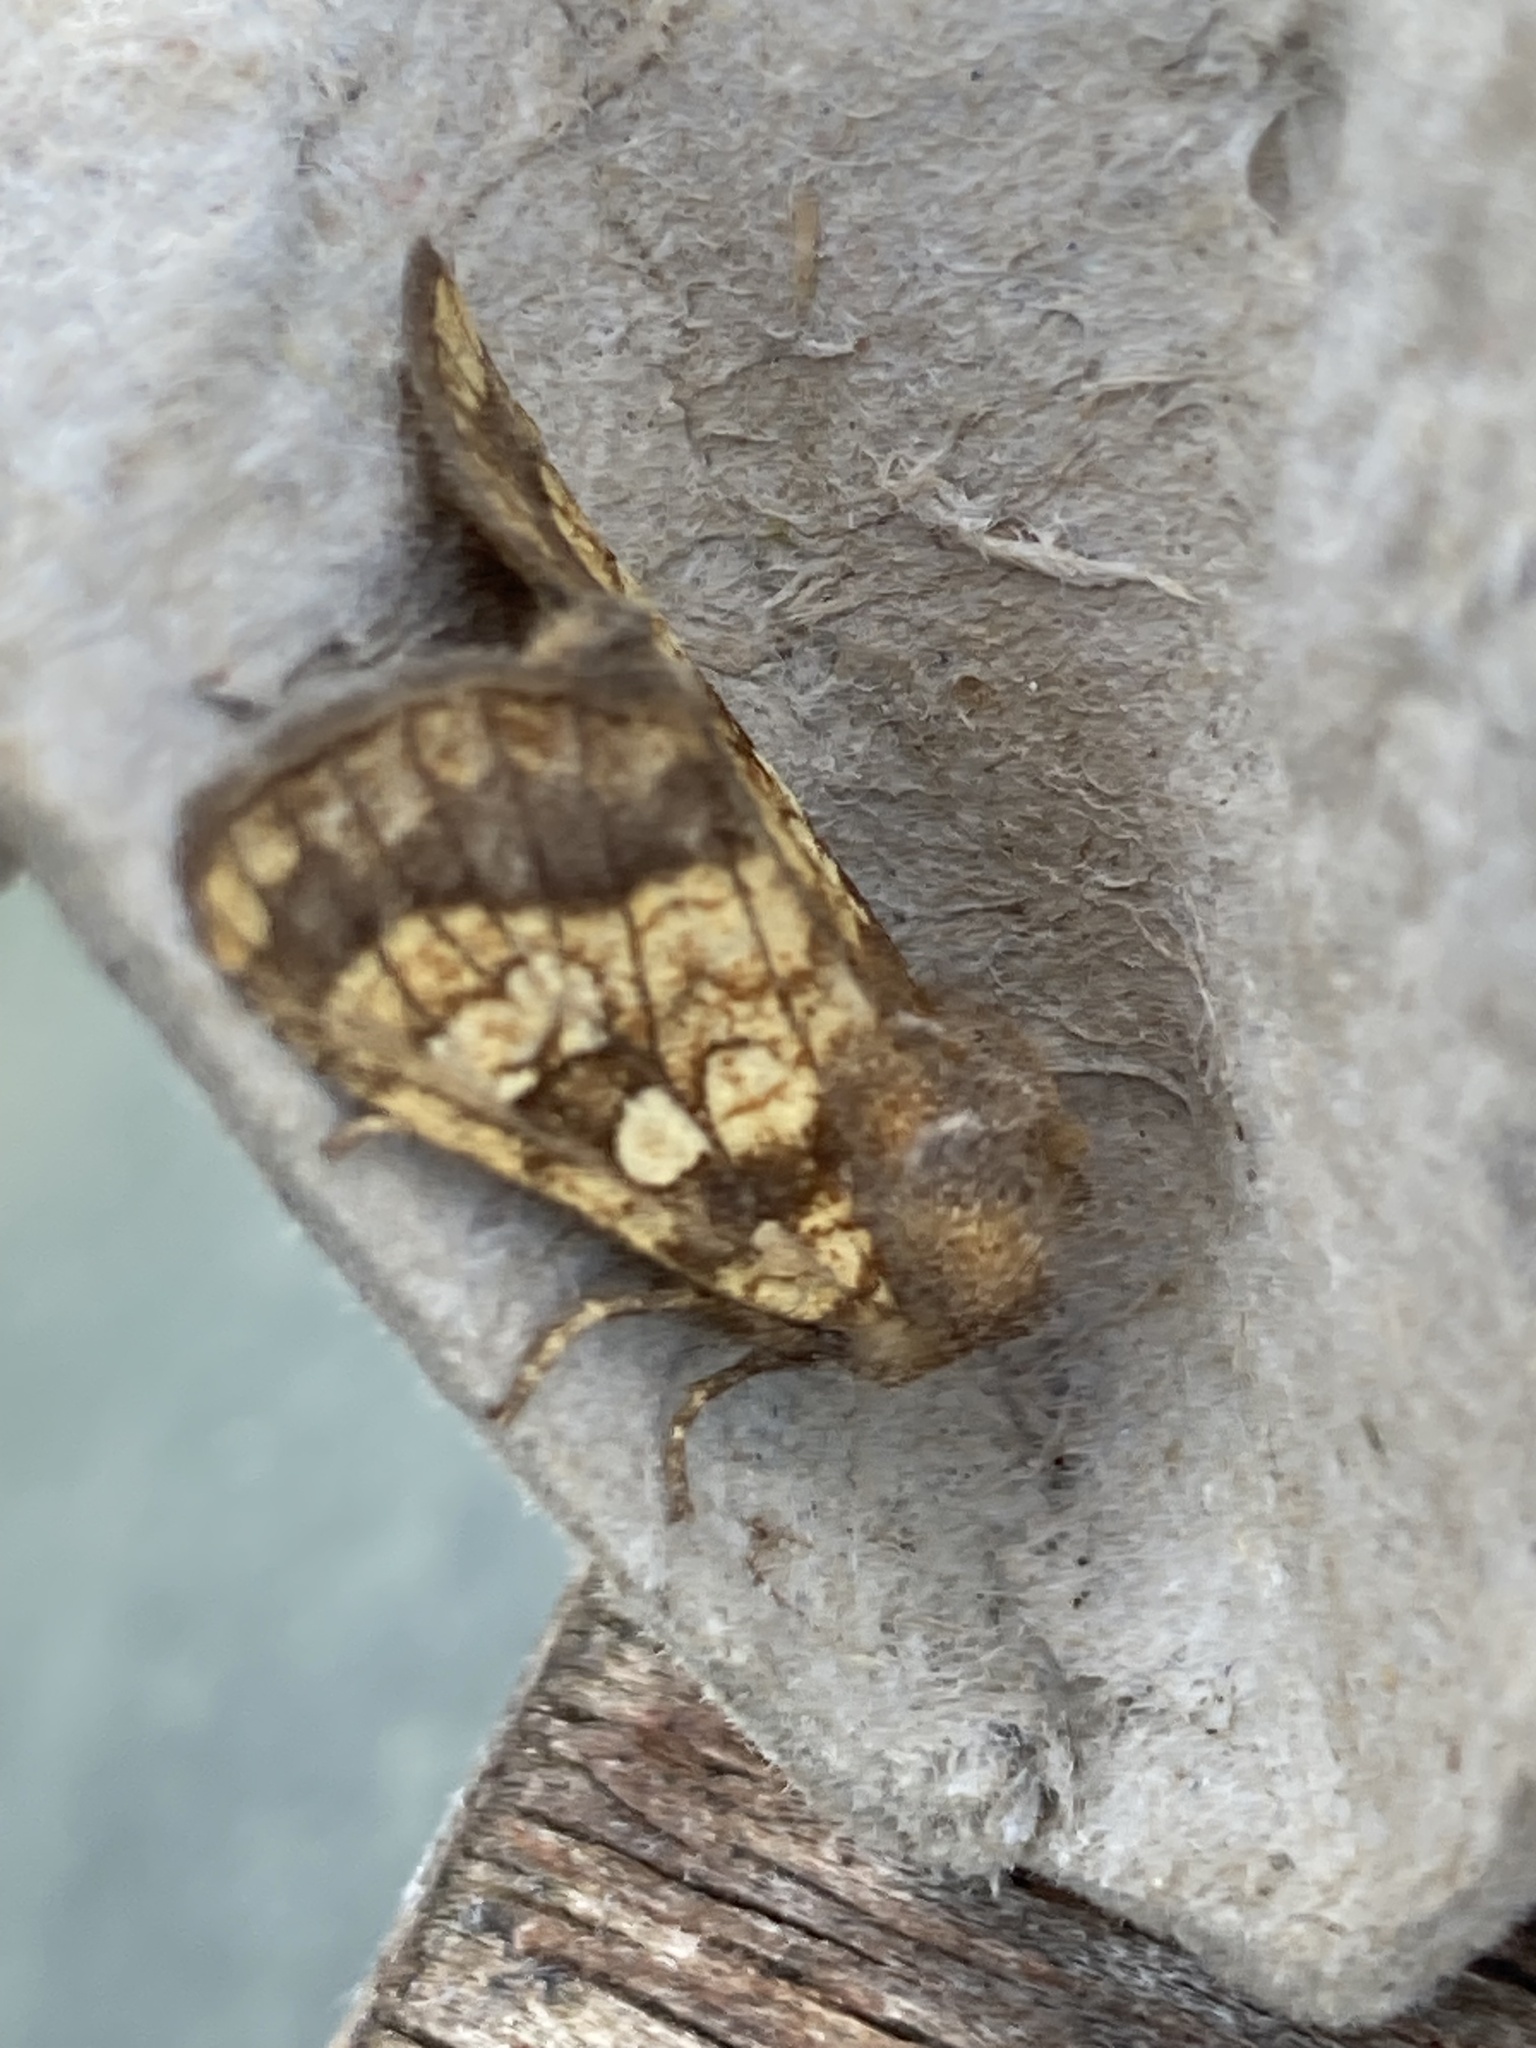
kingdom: Animalia
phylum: Arthropoda
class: Insecta
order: Lepidoptera
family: Noctuidae
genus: Gortyna
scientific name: Gortyna flavago
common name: Frosted orange
